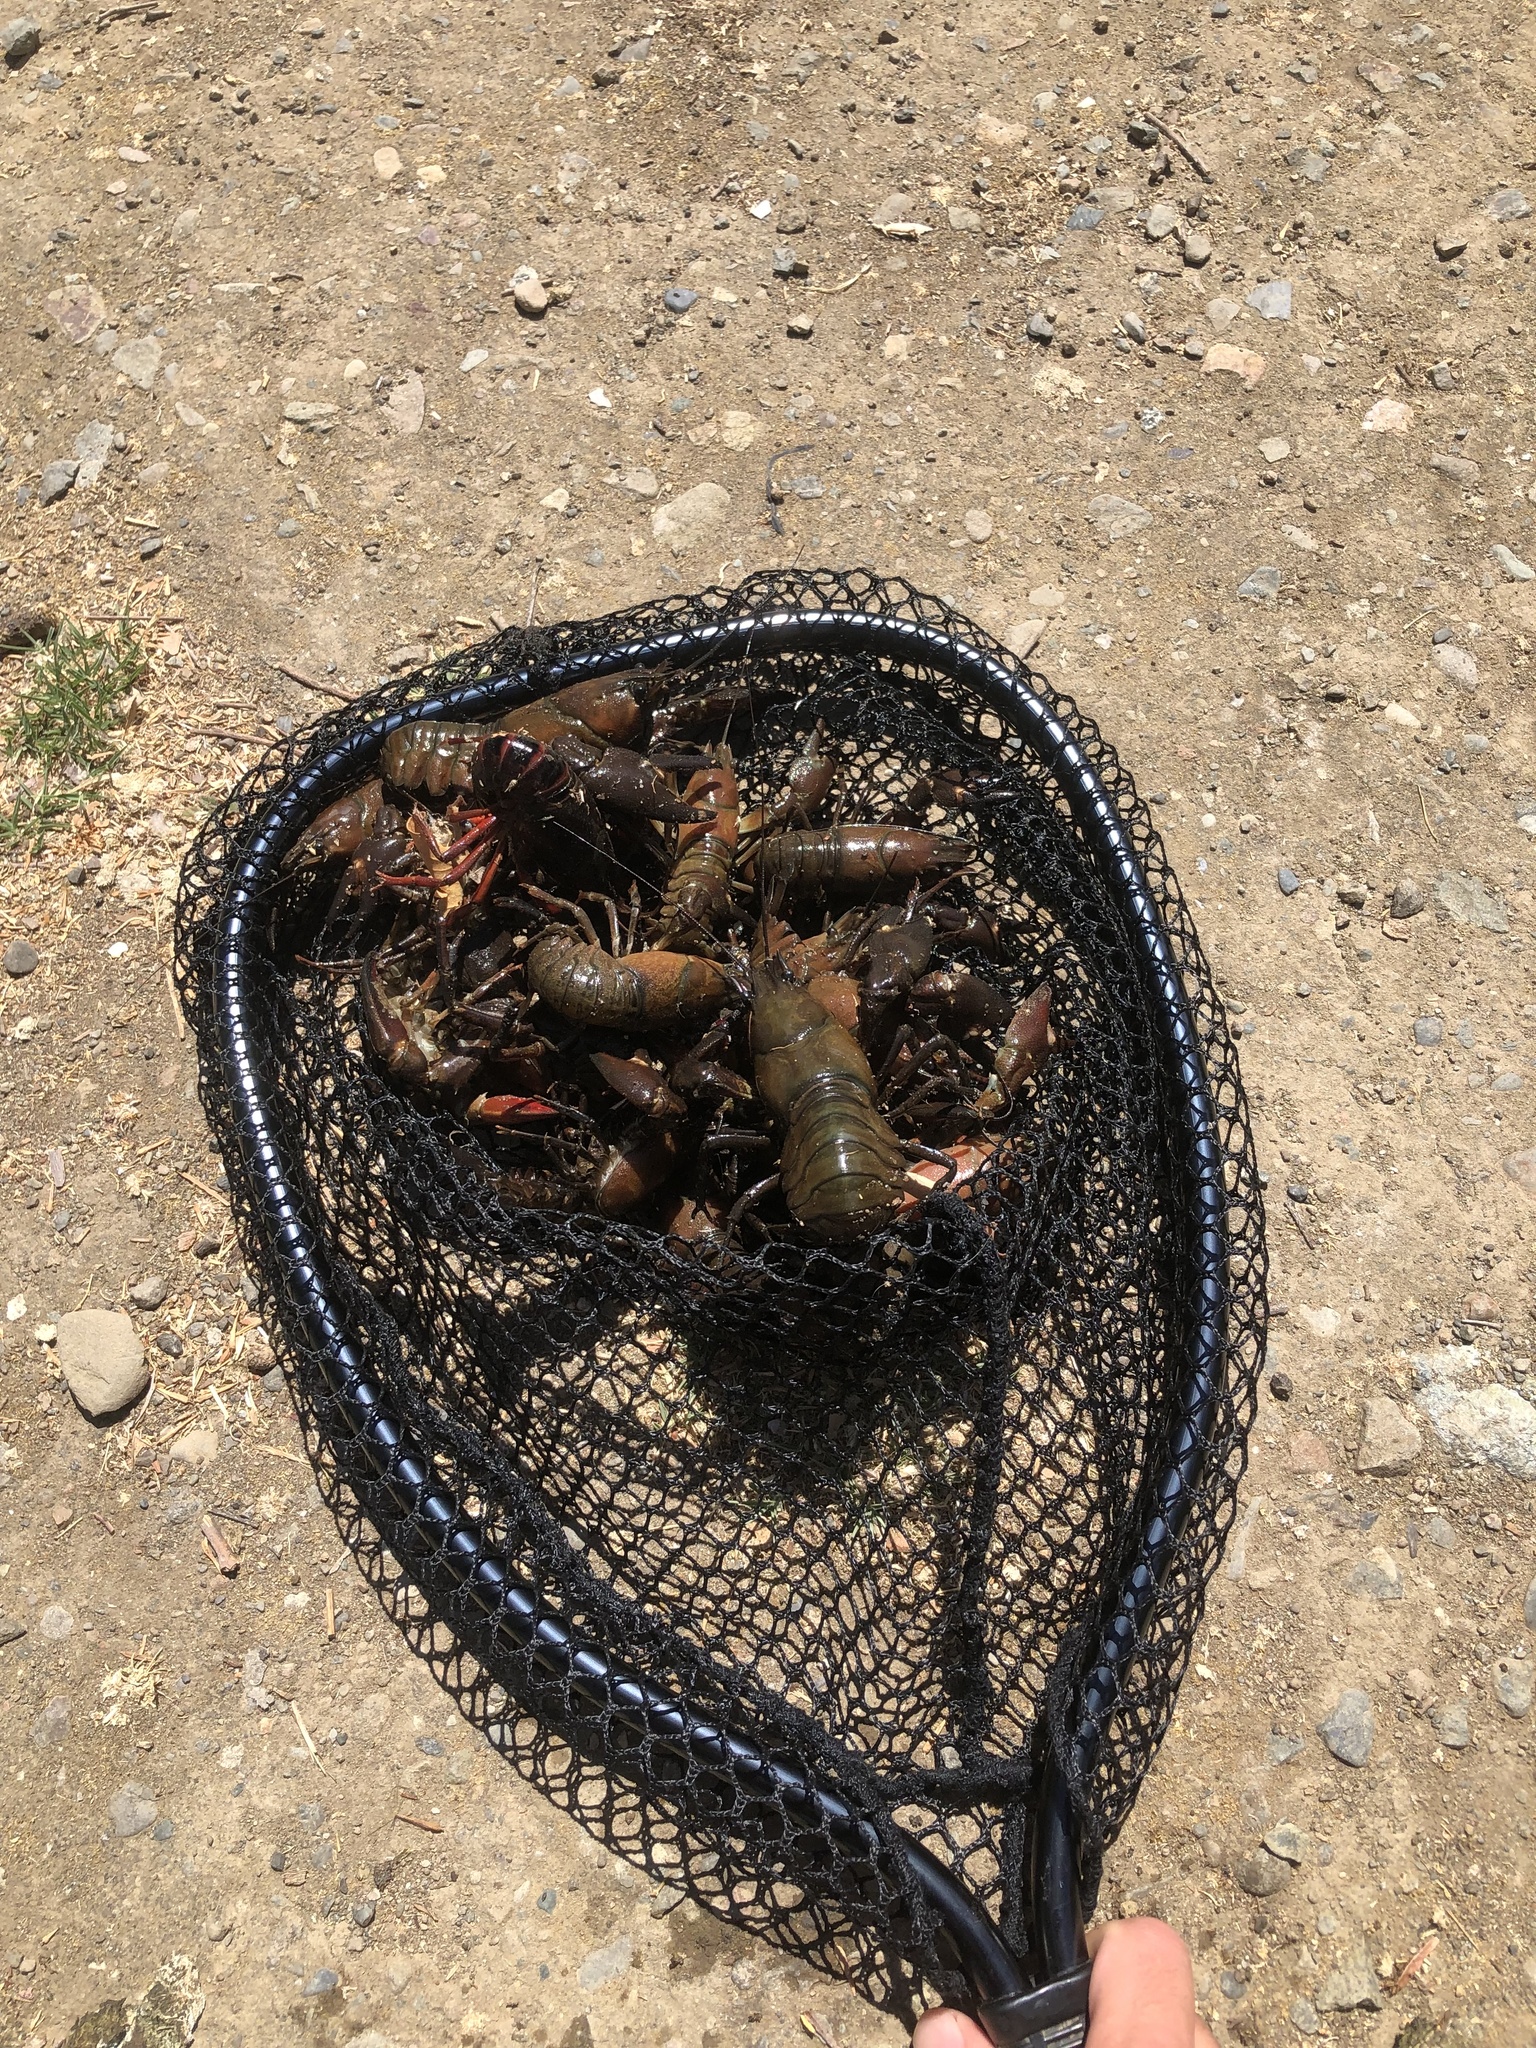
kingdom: Animalia
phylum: Arthropoda
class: Malacostraca
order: Decapoda
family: Astacidae
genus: Pacifastacus
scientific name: Pacifastacus leniusculus
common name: Signal crayfish
